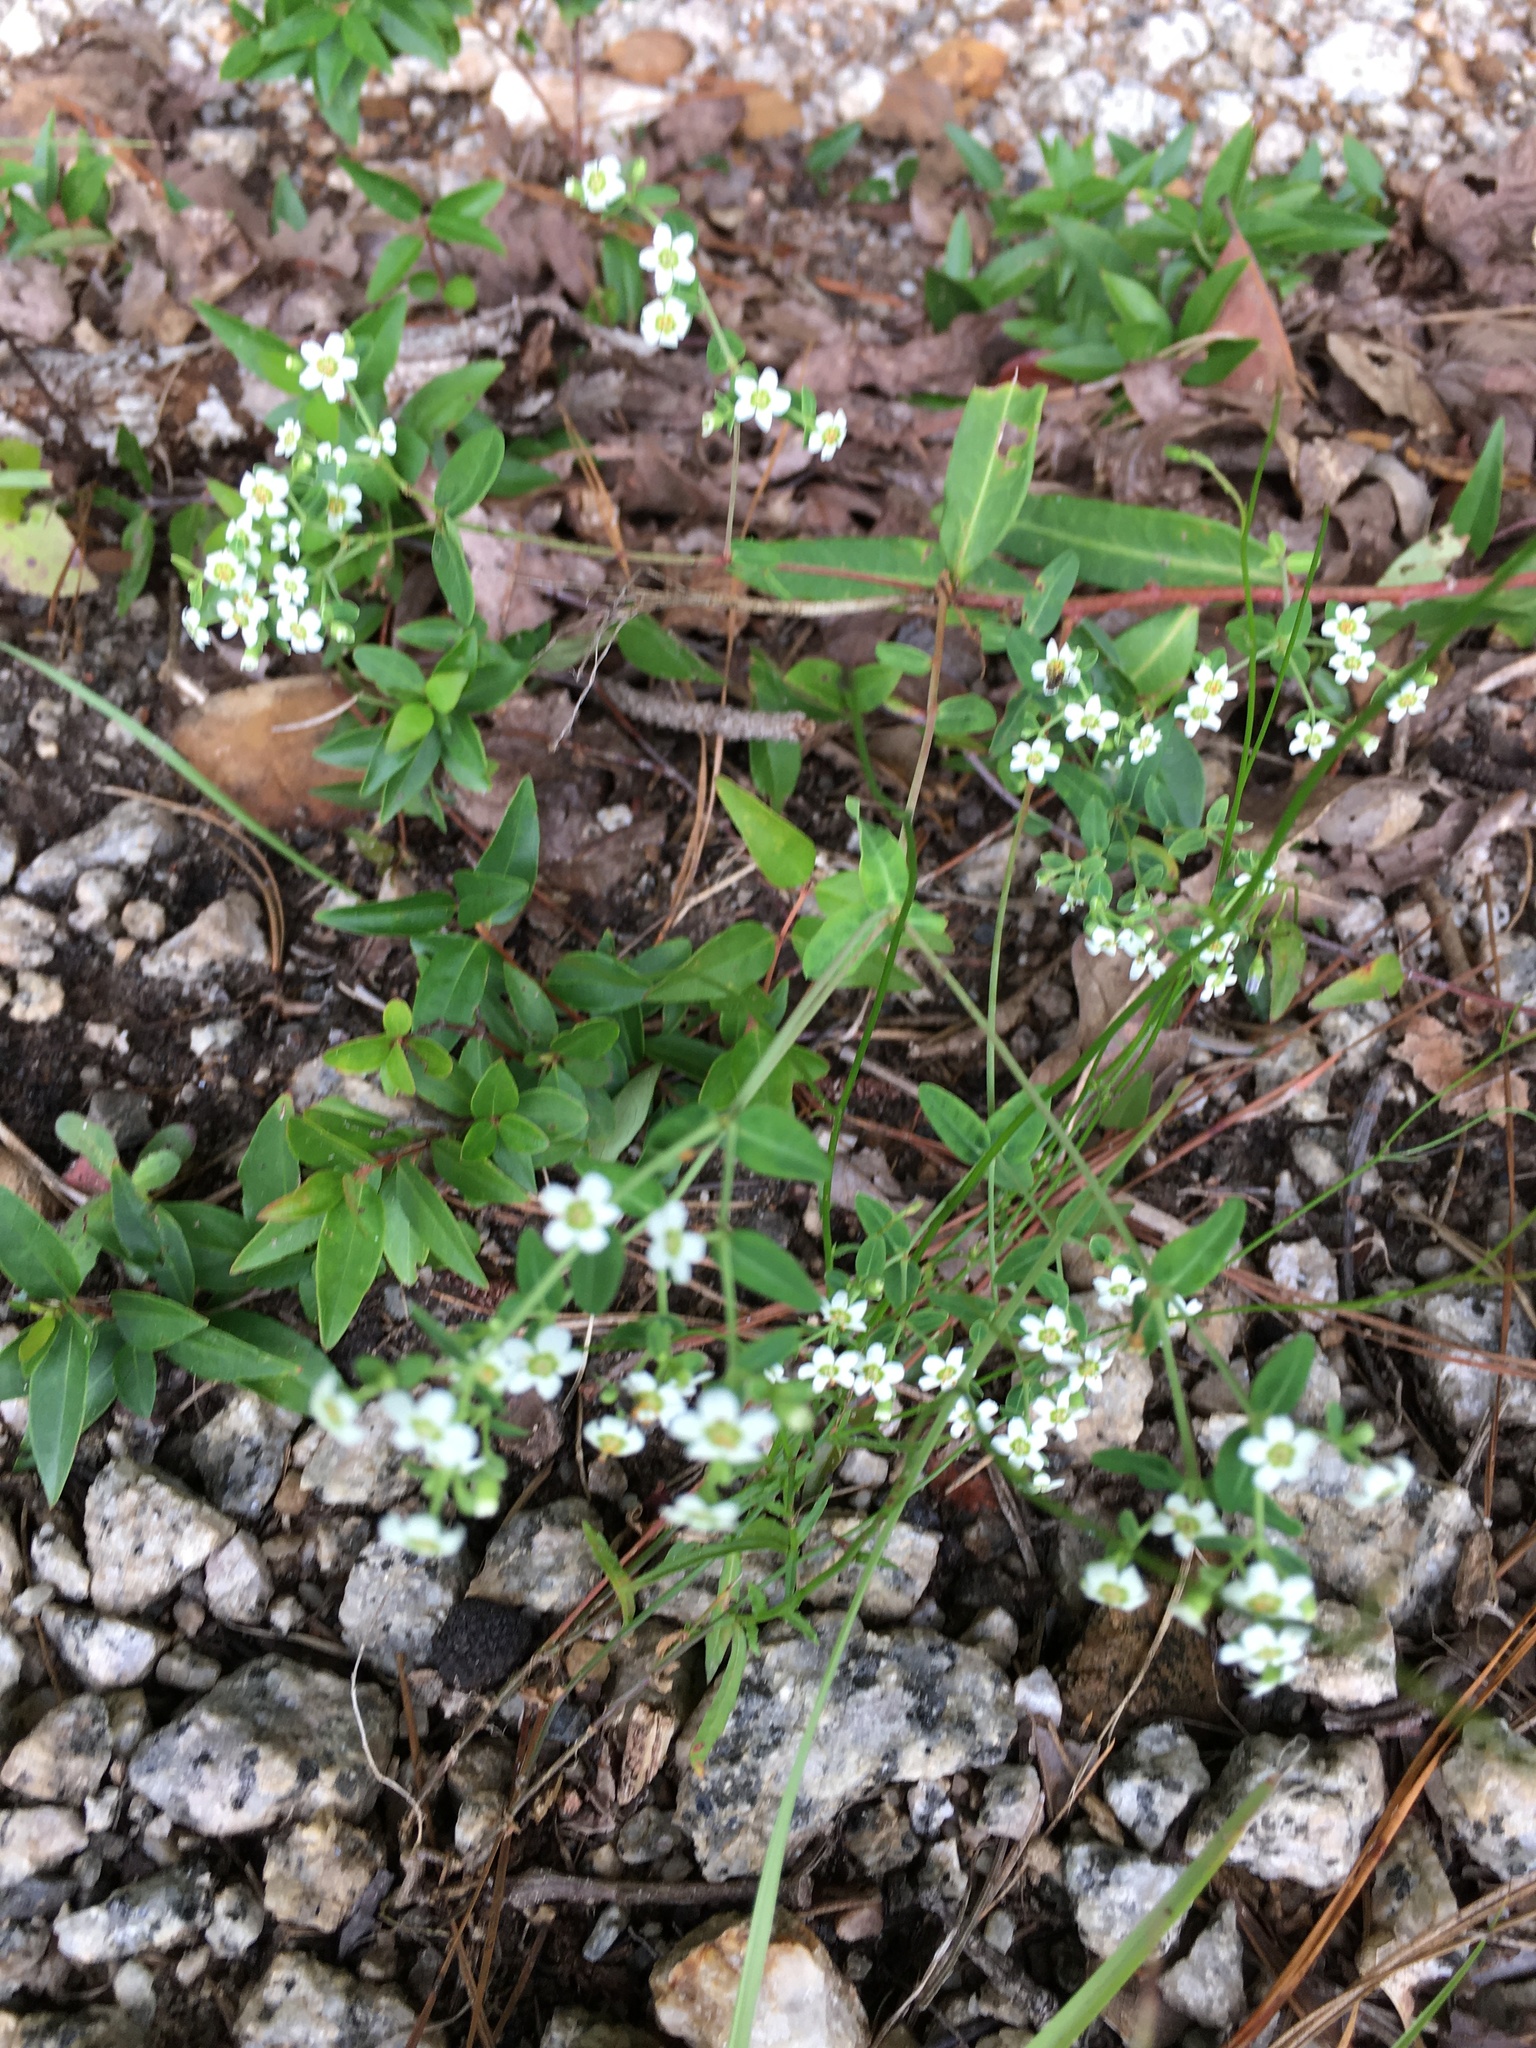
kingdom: Plantae
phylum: Tracheophyta
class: Magnoliopsida
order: Malpighiales
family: Euphorbiaceae
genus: Euphorbia
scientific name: Euphorbia corollata
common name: Flowering spurge
